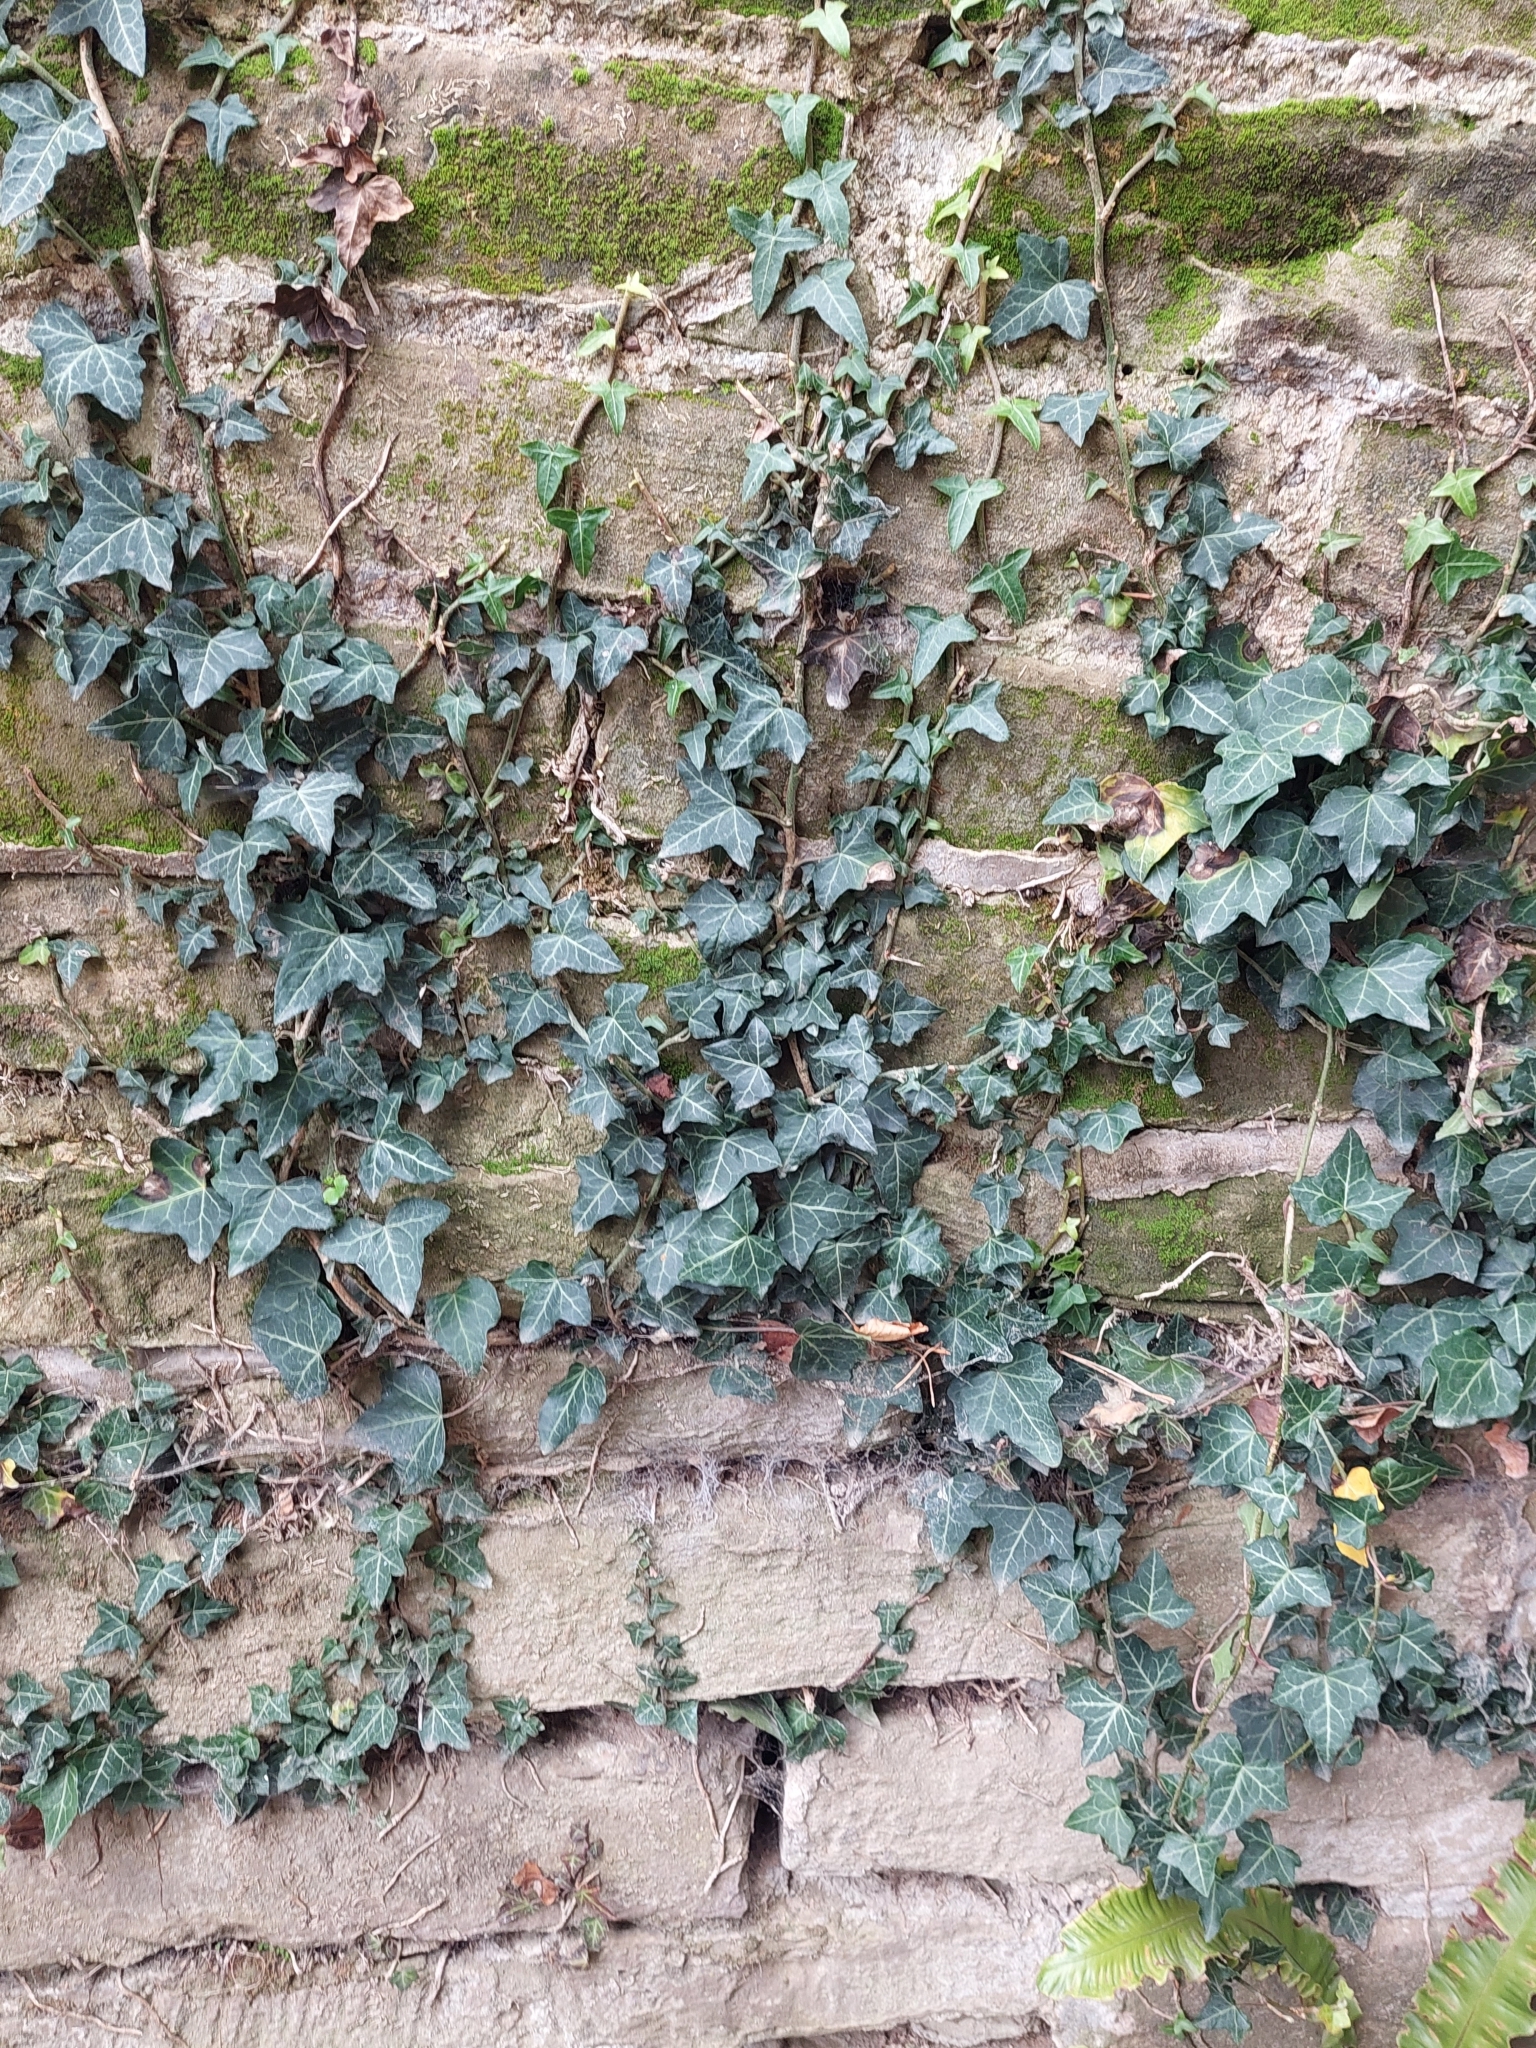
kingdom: Plantae
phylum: Tracheophyta
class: Magnoliopsida
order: Apiales
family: Araliaceae
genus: Hedera
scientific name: Hedera helix
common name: Ivy
